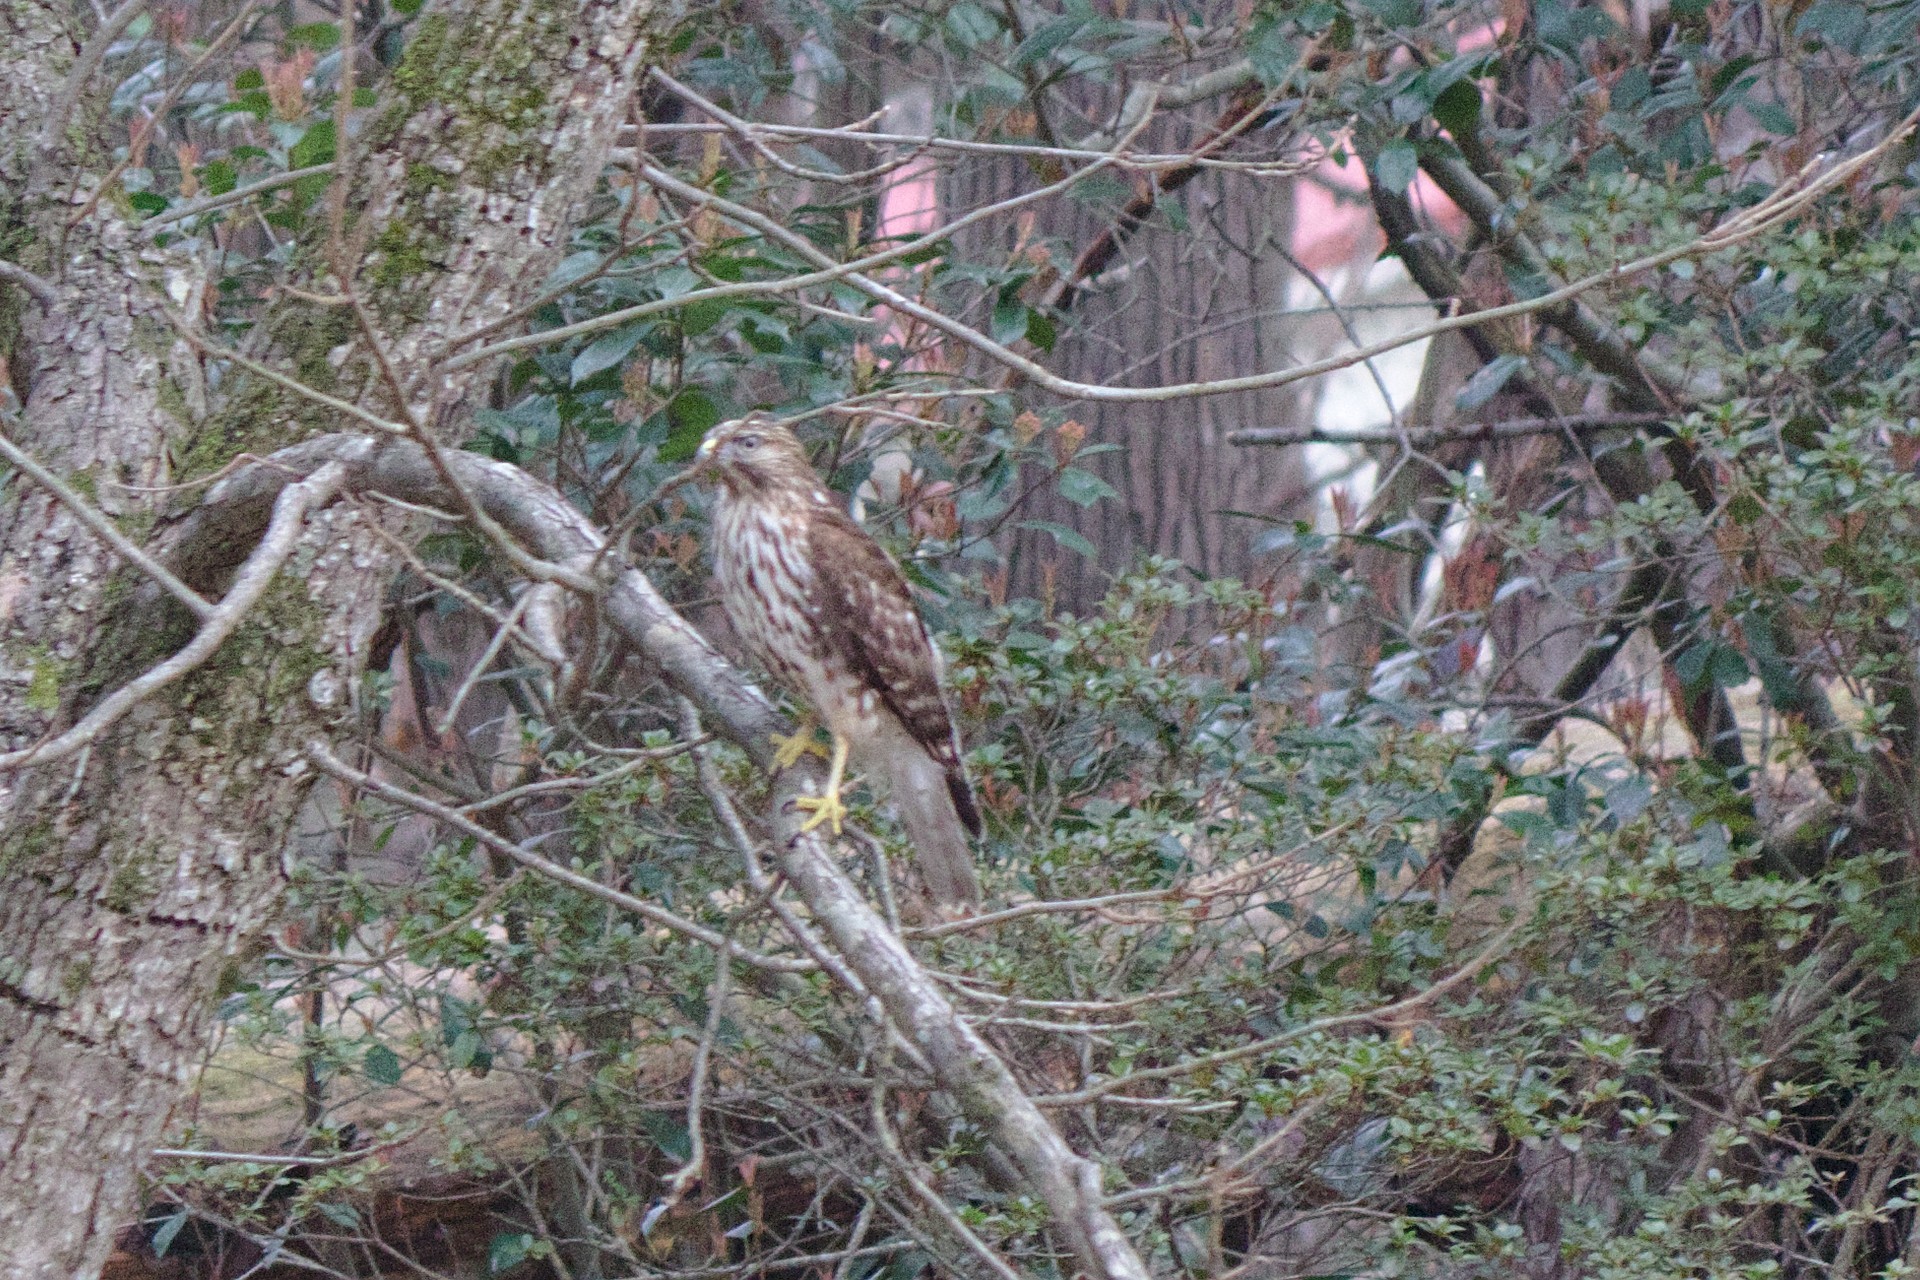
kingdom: Animalia
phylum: Chordata
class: Aves
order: Accipitriformes
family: Accipitridae
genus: Buteo
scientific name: Buteo lineatus
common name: Red-shouldered hawk
